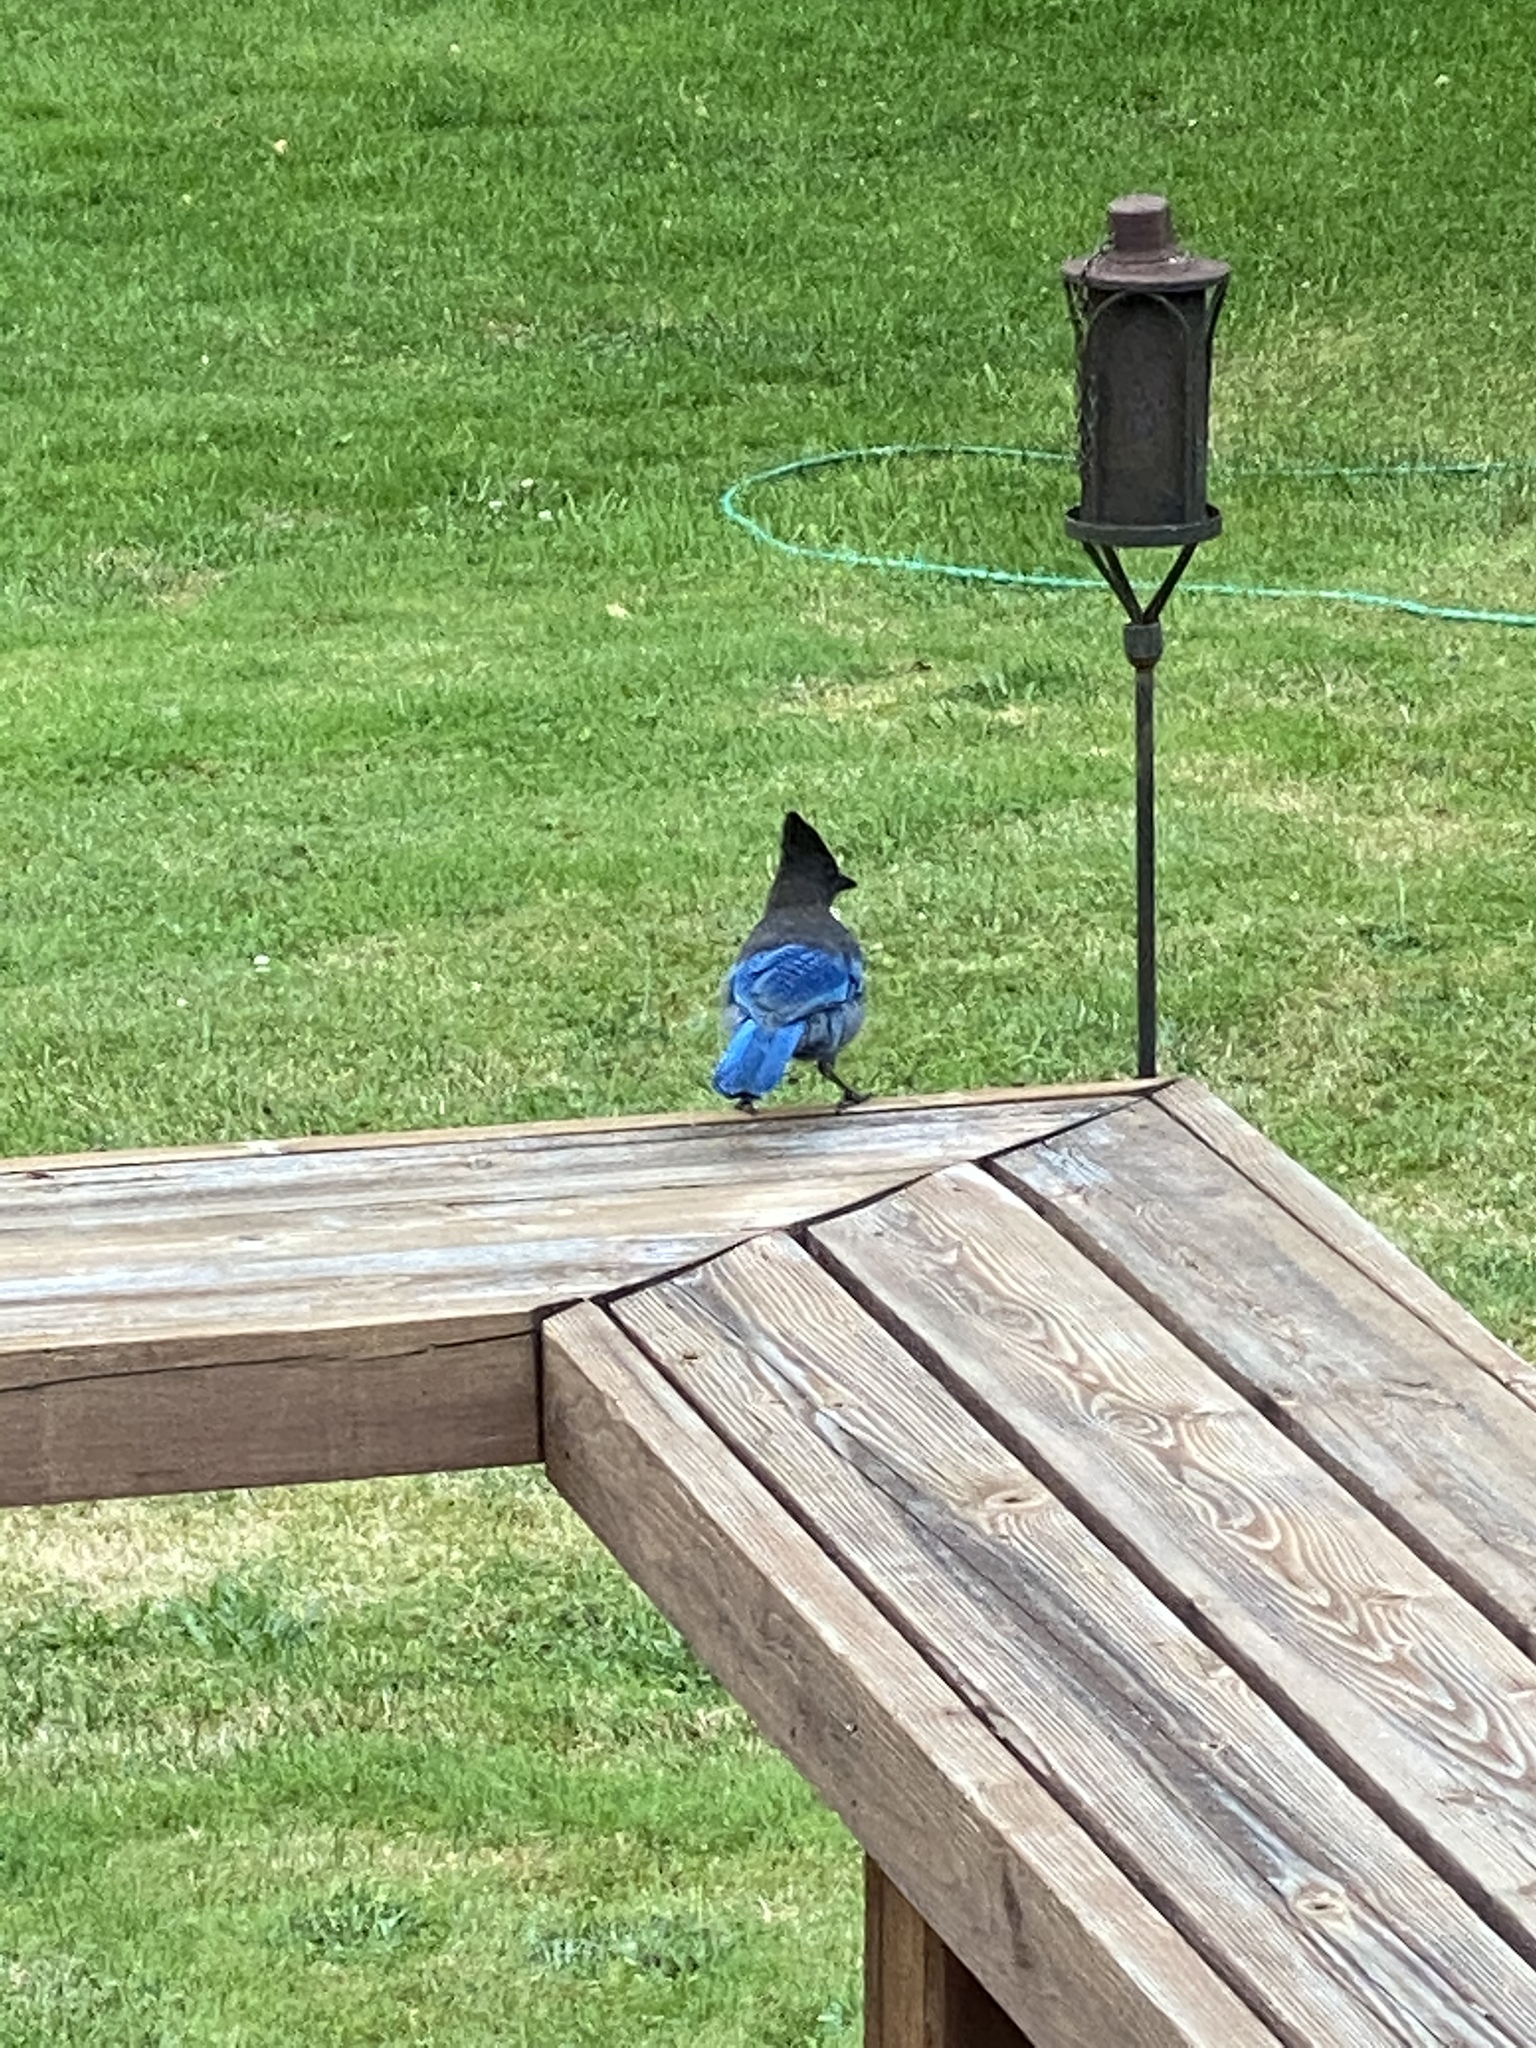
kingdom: Animalia
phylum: Chordata
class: Aves
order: Passeriformes
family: Corvidae
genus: Cyanocitta
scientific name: Cyanocitta stelleri
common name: Steller's jay
